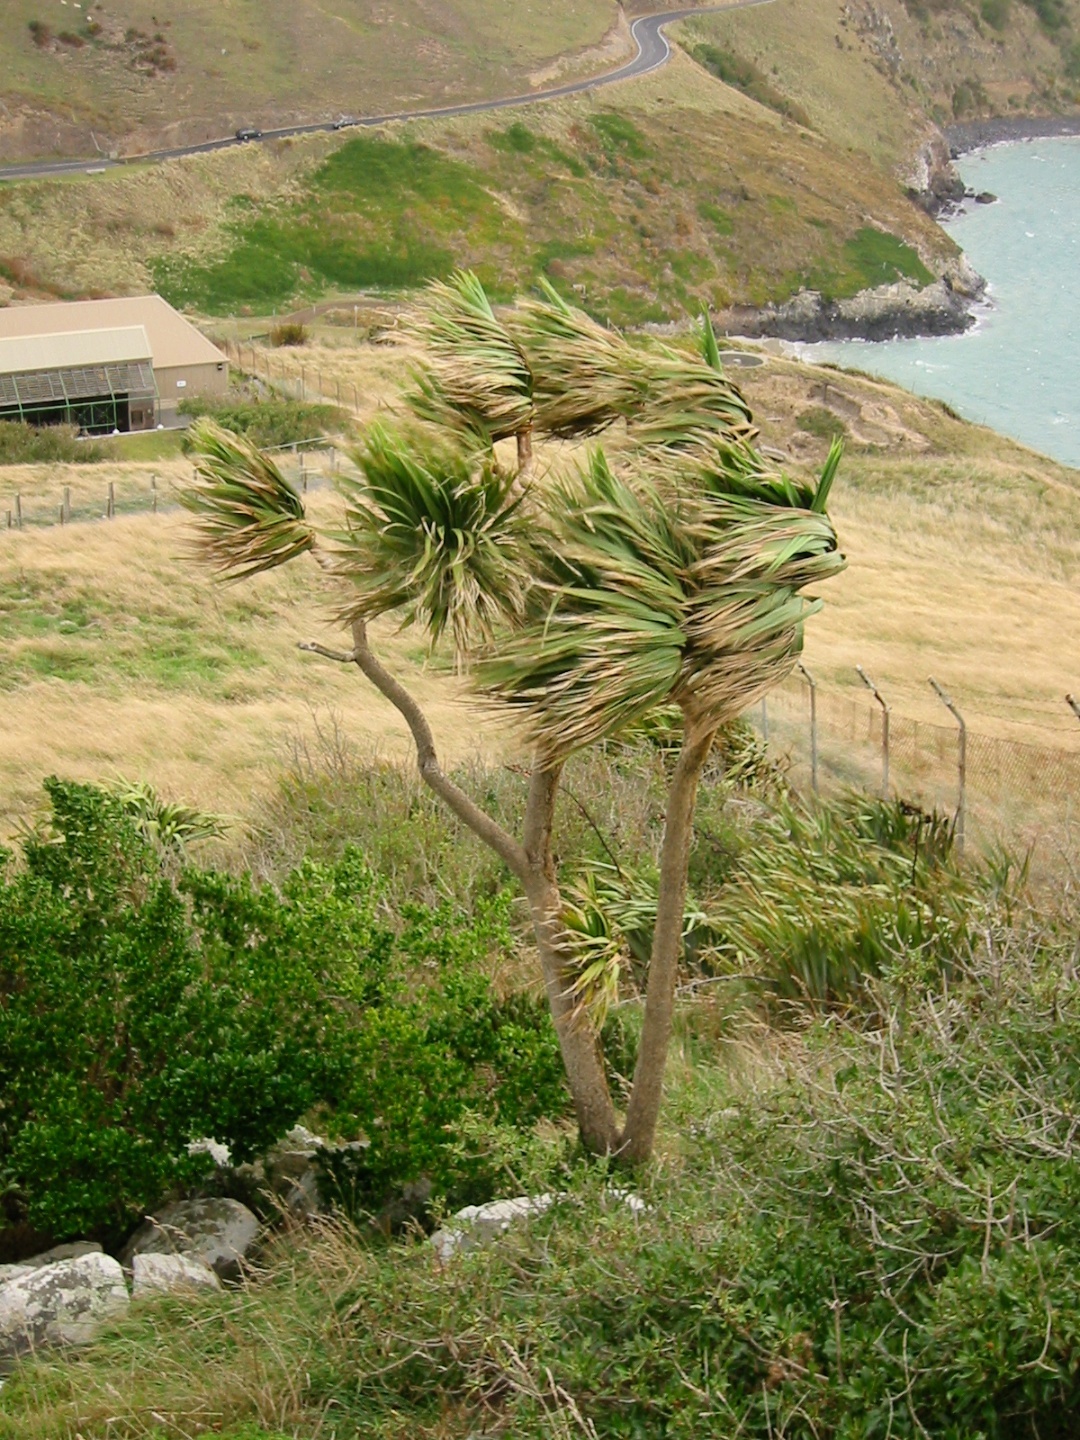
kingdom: Plantae
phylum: Tracheophyta
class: Liliopsida
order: Asparagales
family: Asparagaceae
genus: Cordyline
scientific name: Cordyline australis
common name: Cabbage-palm
